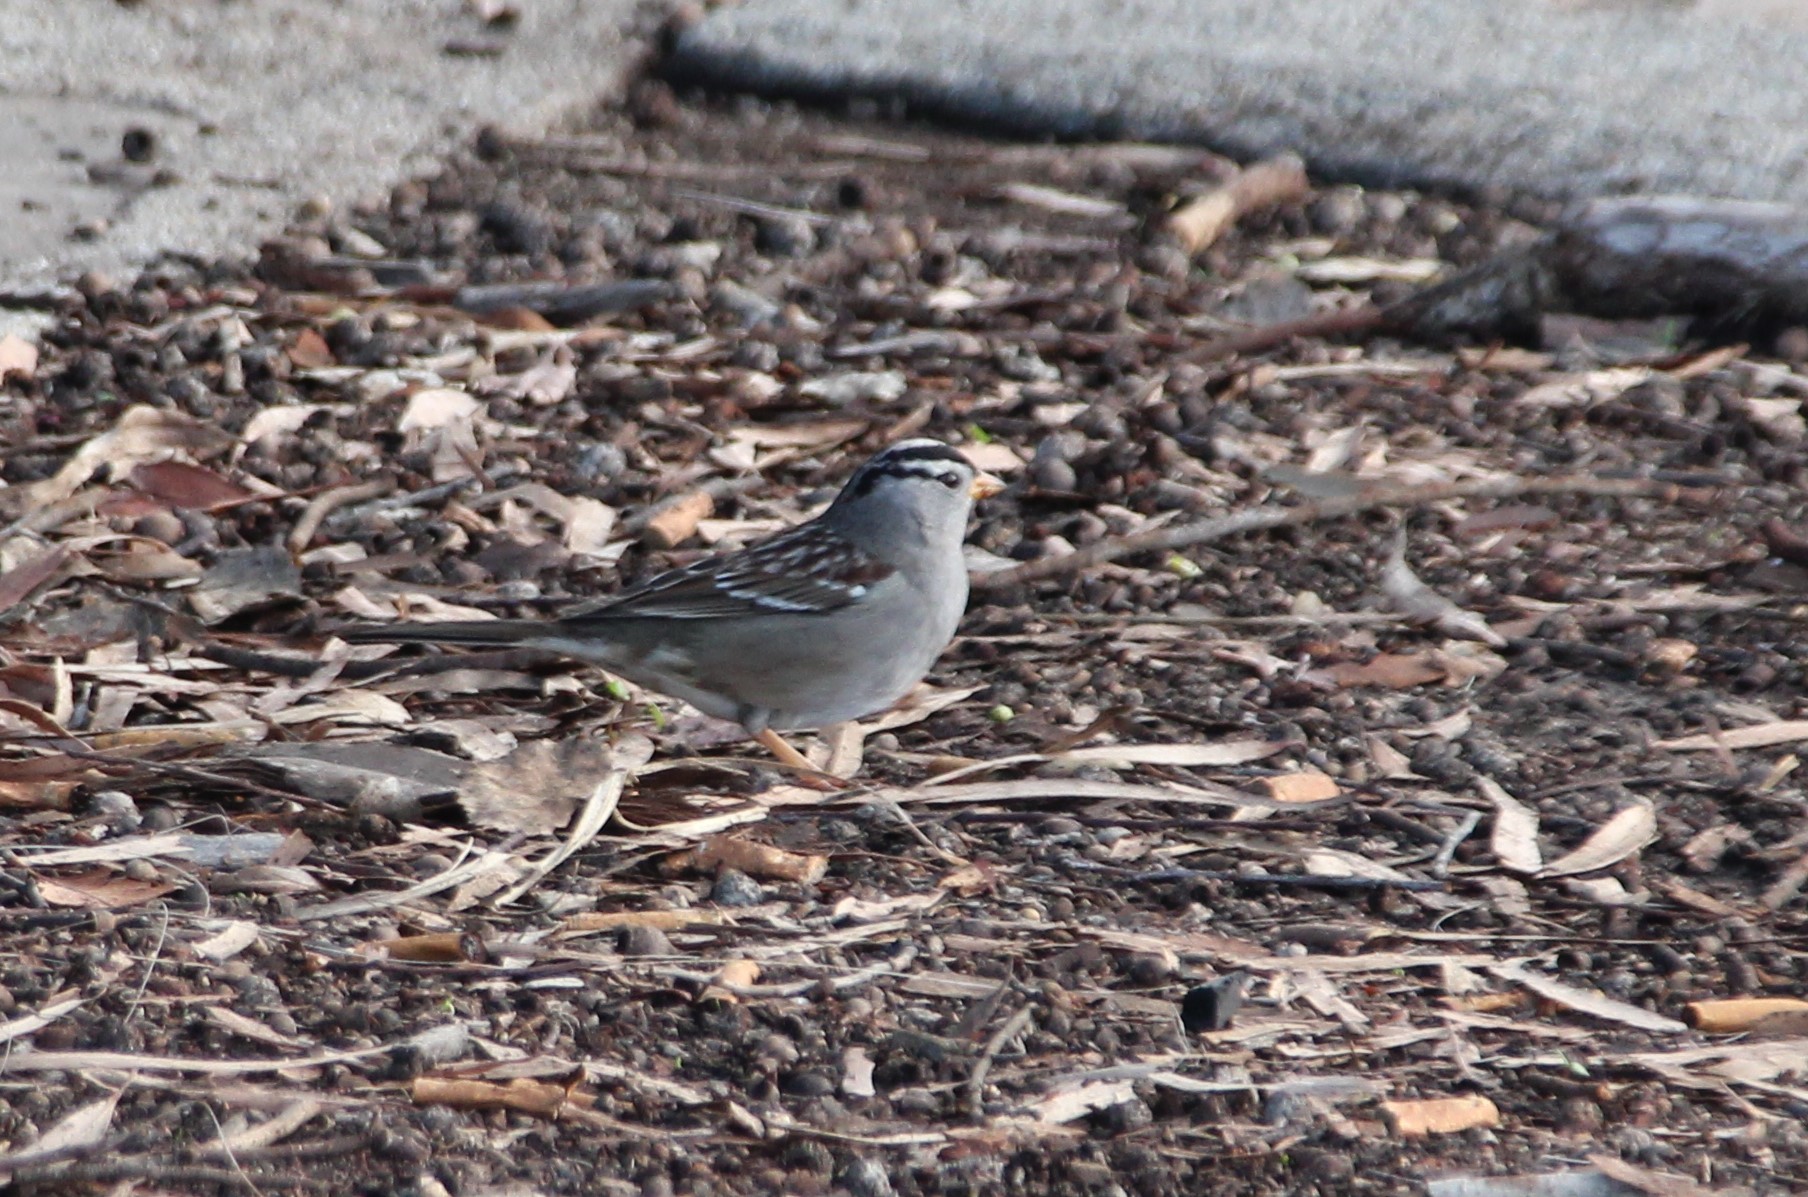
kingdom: Animalia
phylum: Chordata
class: Aves
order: Passeriformes
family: Passerellidae
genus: Zonotrichia
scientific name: Zonotrichia leucophrys
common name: White-crowned sparrow
